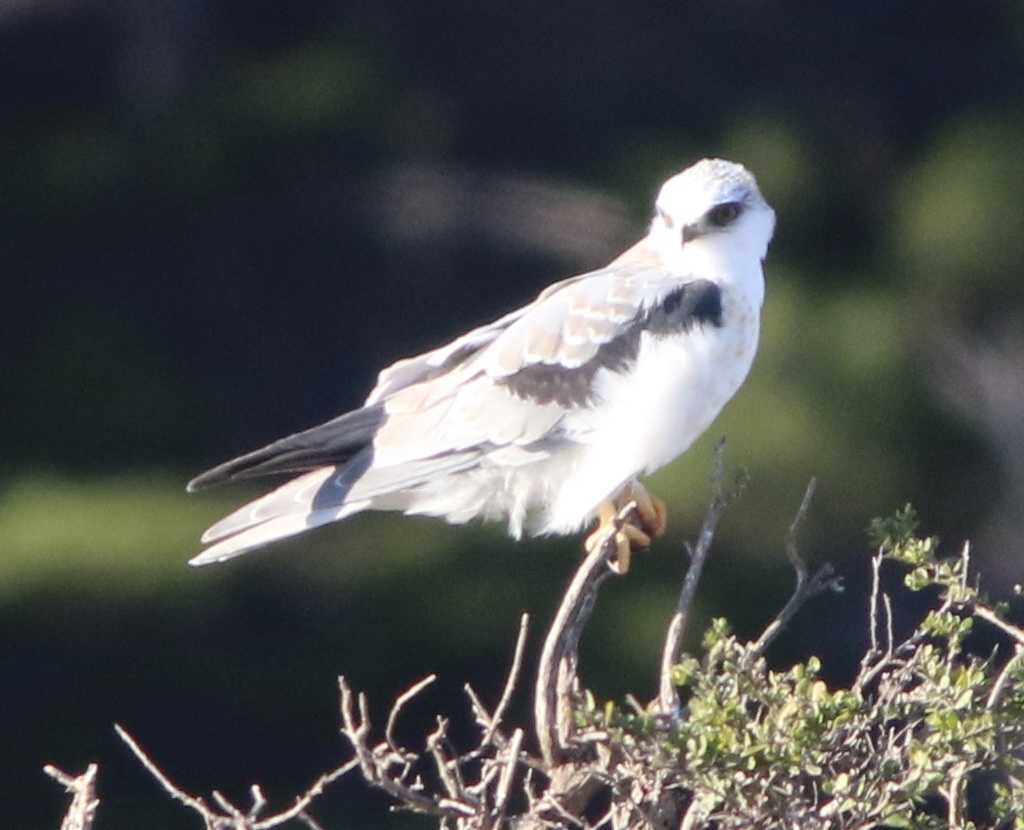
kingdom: Animalia
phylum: Chordata
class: Aves
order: Accipitriformes
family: Accipitridae
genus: Elanus
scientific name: Elanus leucurus
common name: White-tailed kite
